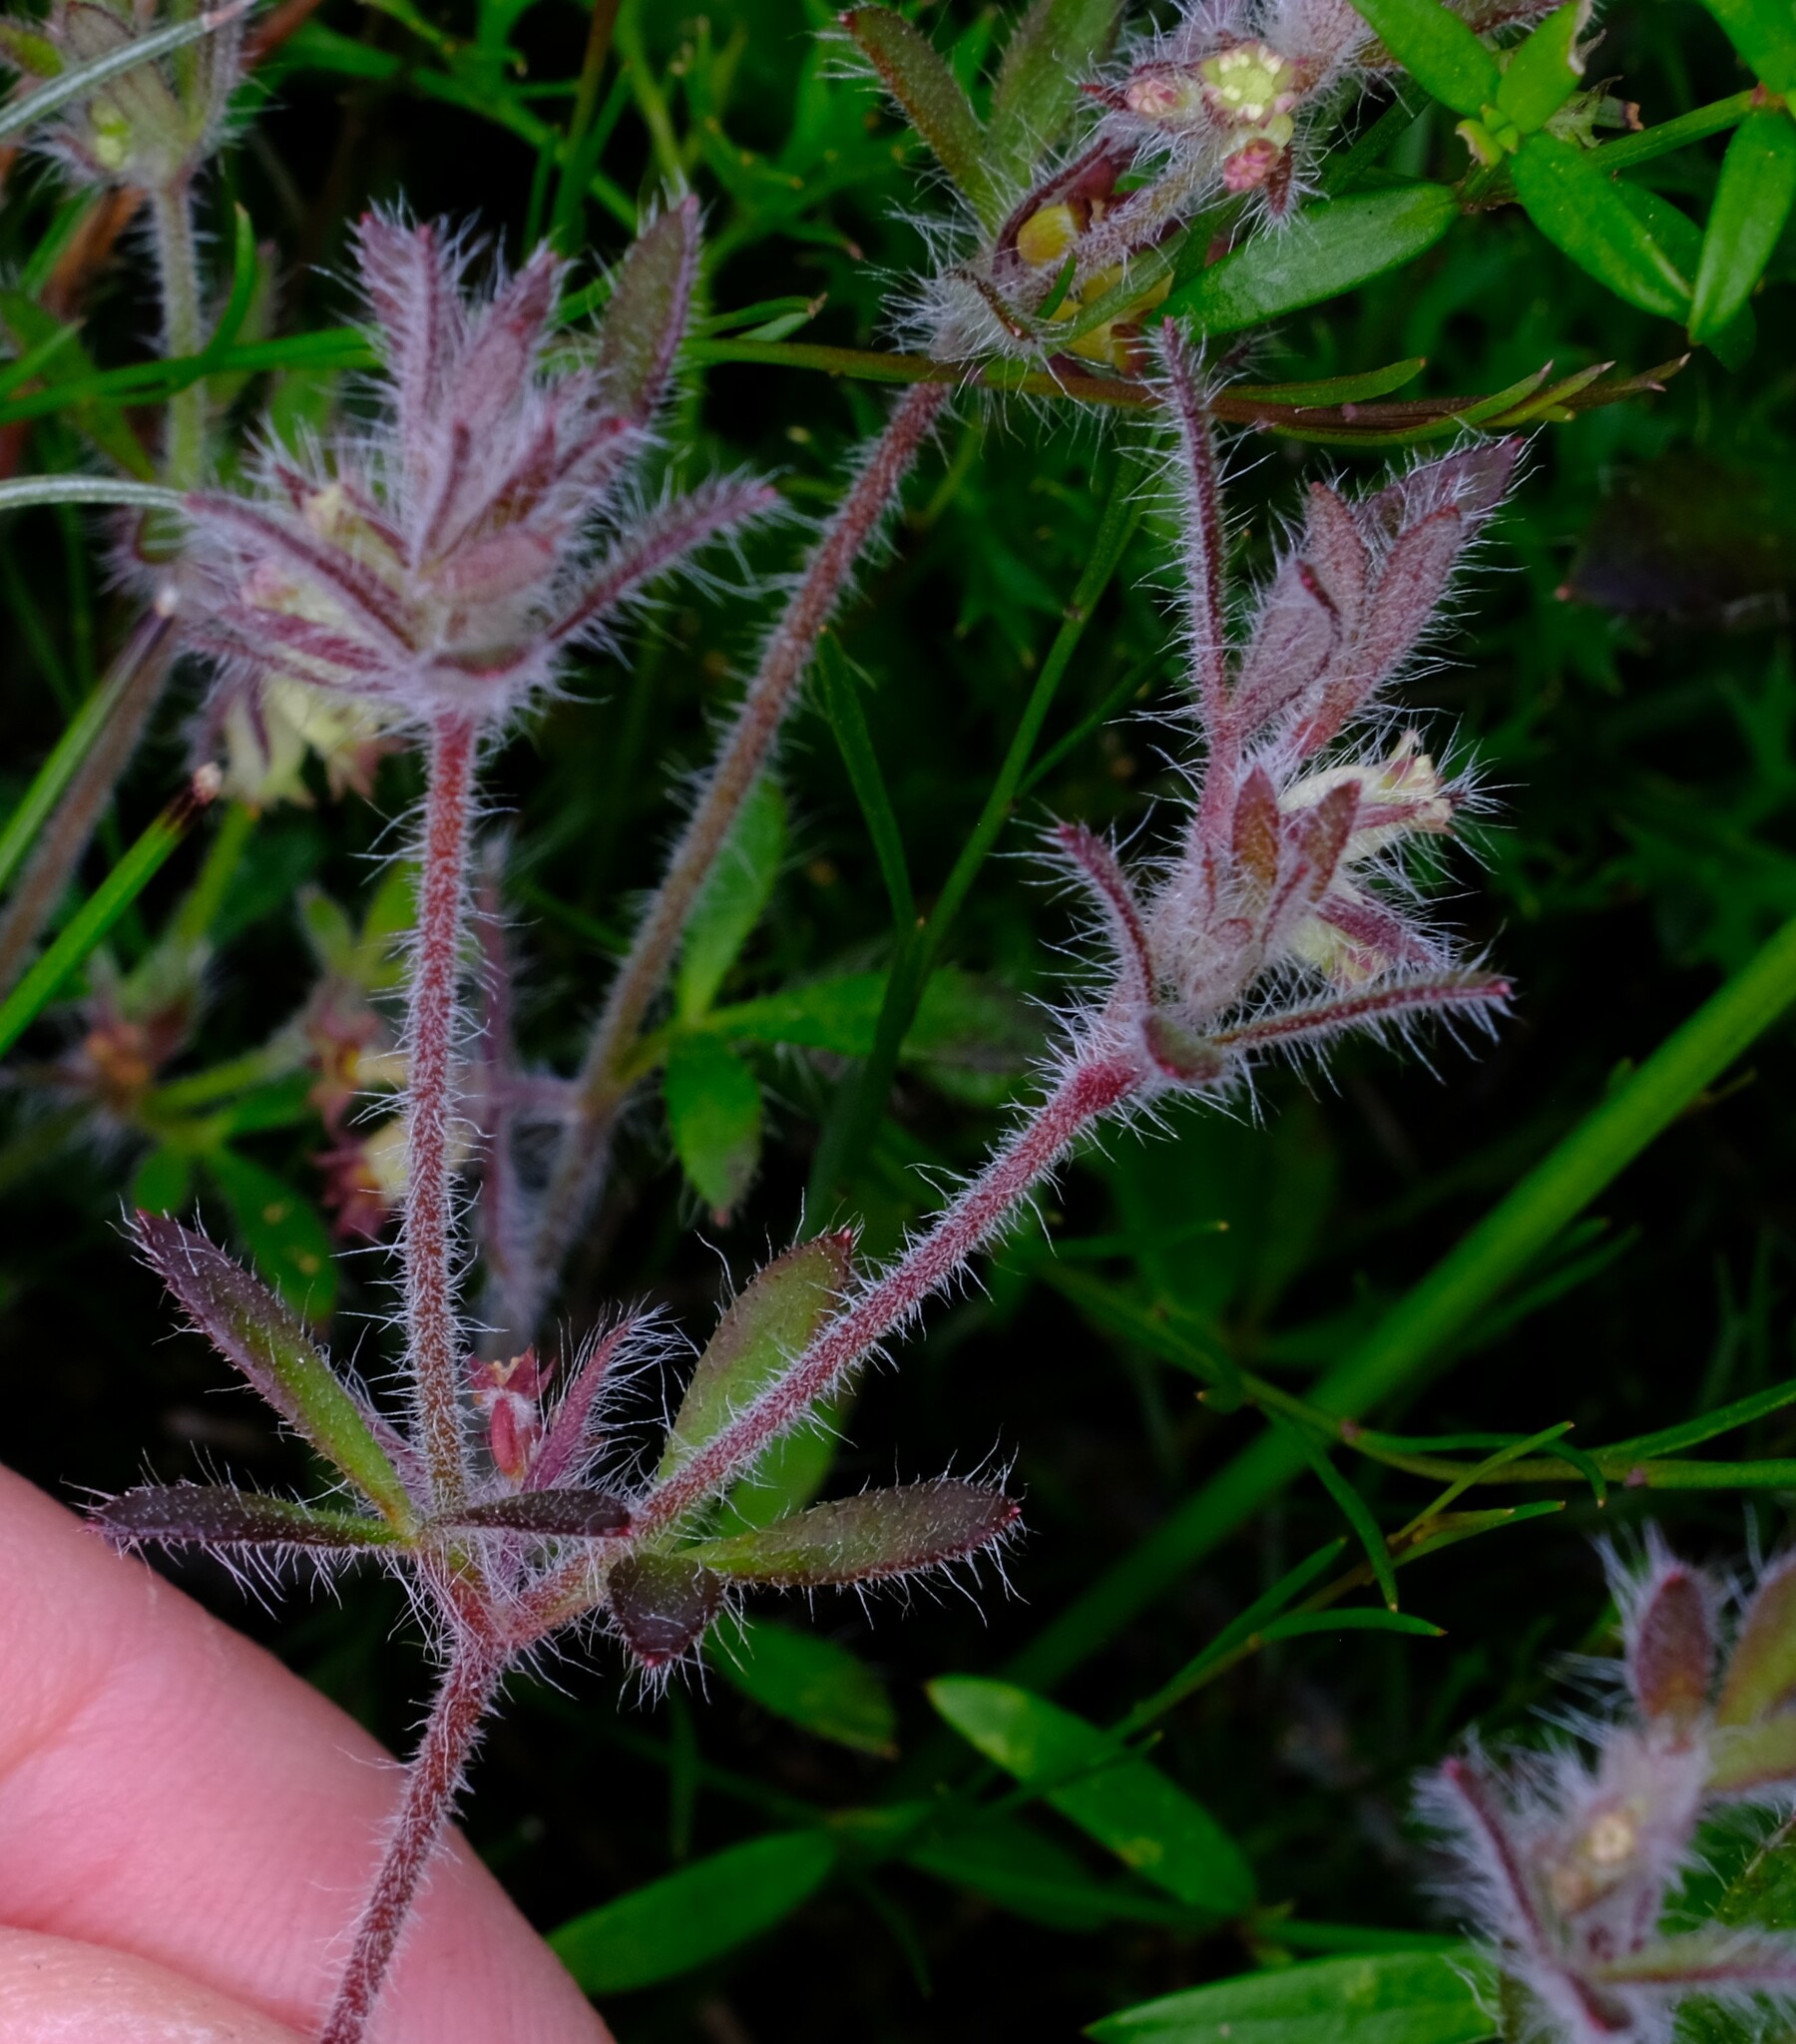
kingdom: Plantae
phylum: Tracheophyta
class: Magnoliopsida
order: Apiales
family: Apiaceae
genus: Xanthosia
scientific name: Xanthosia huegelii
